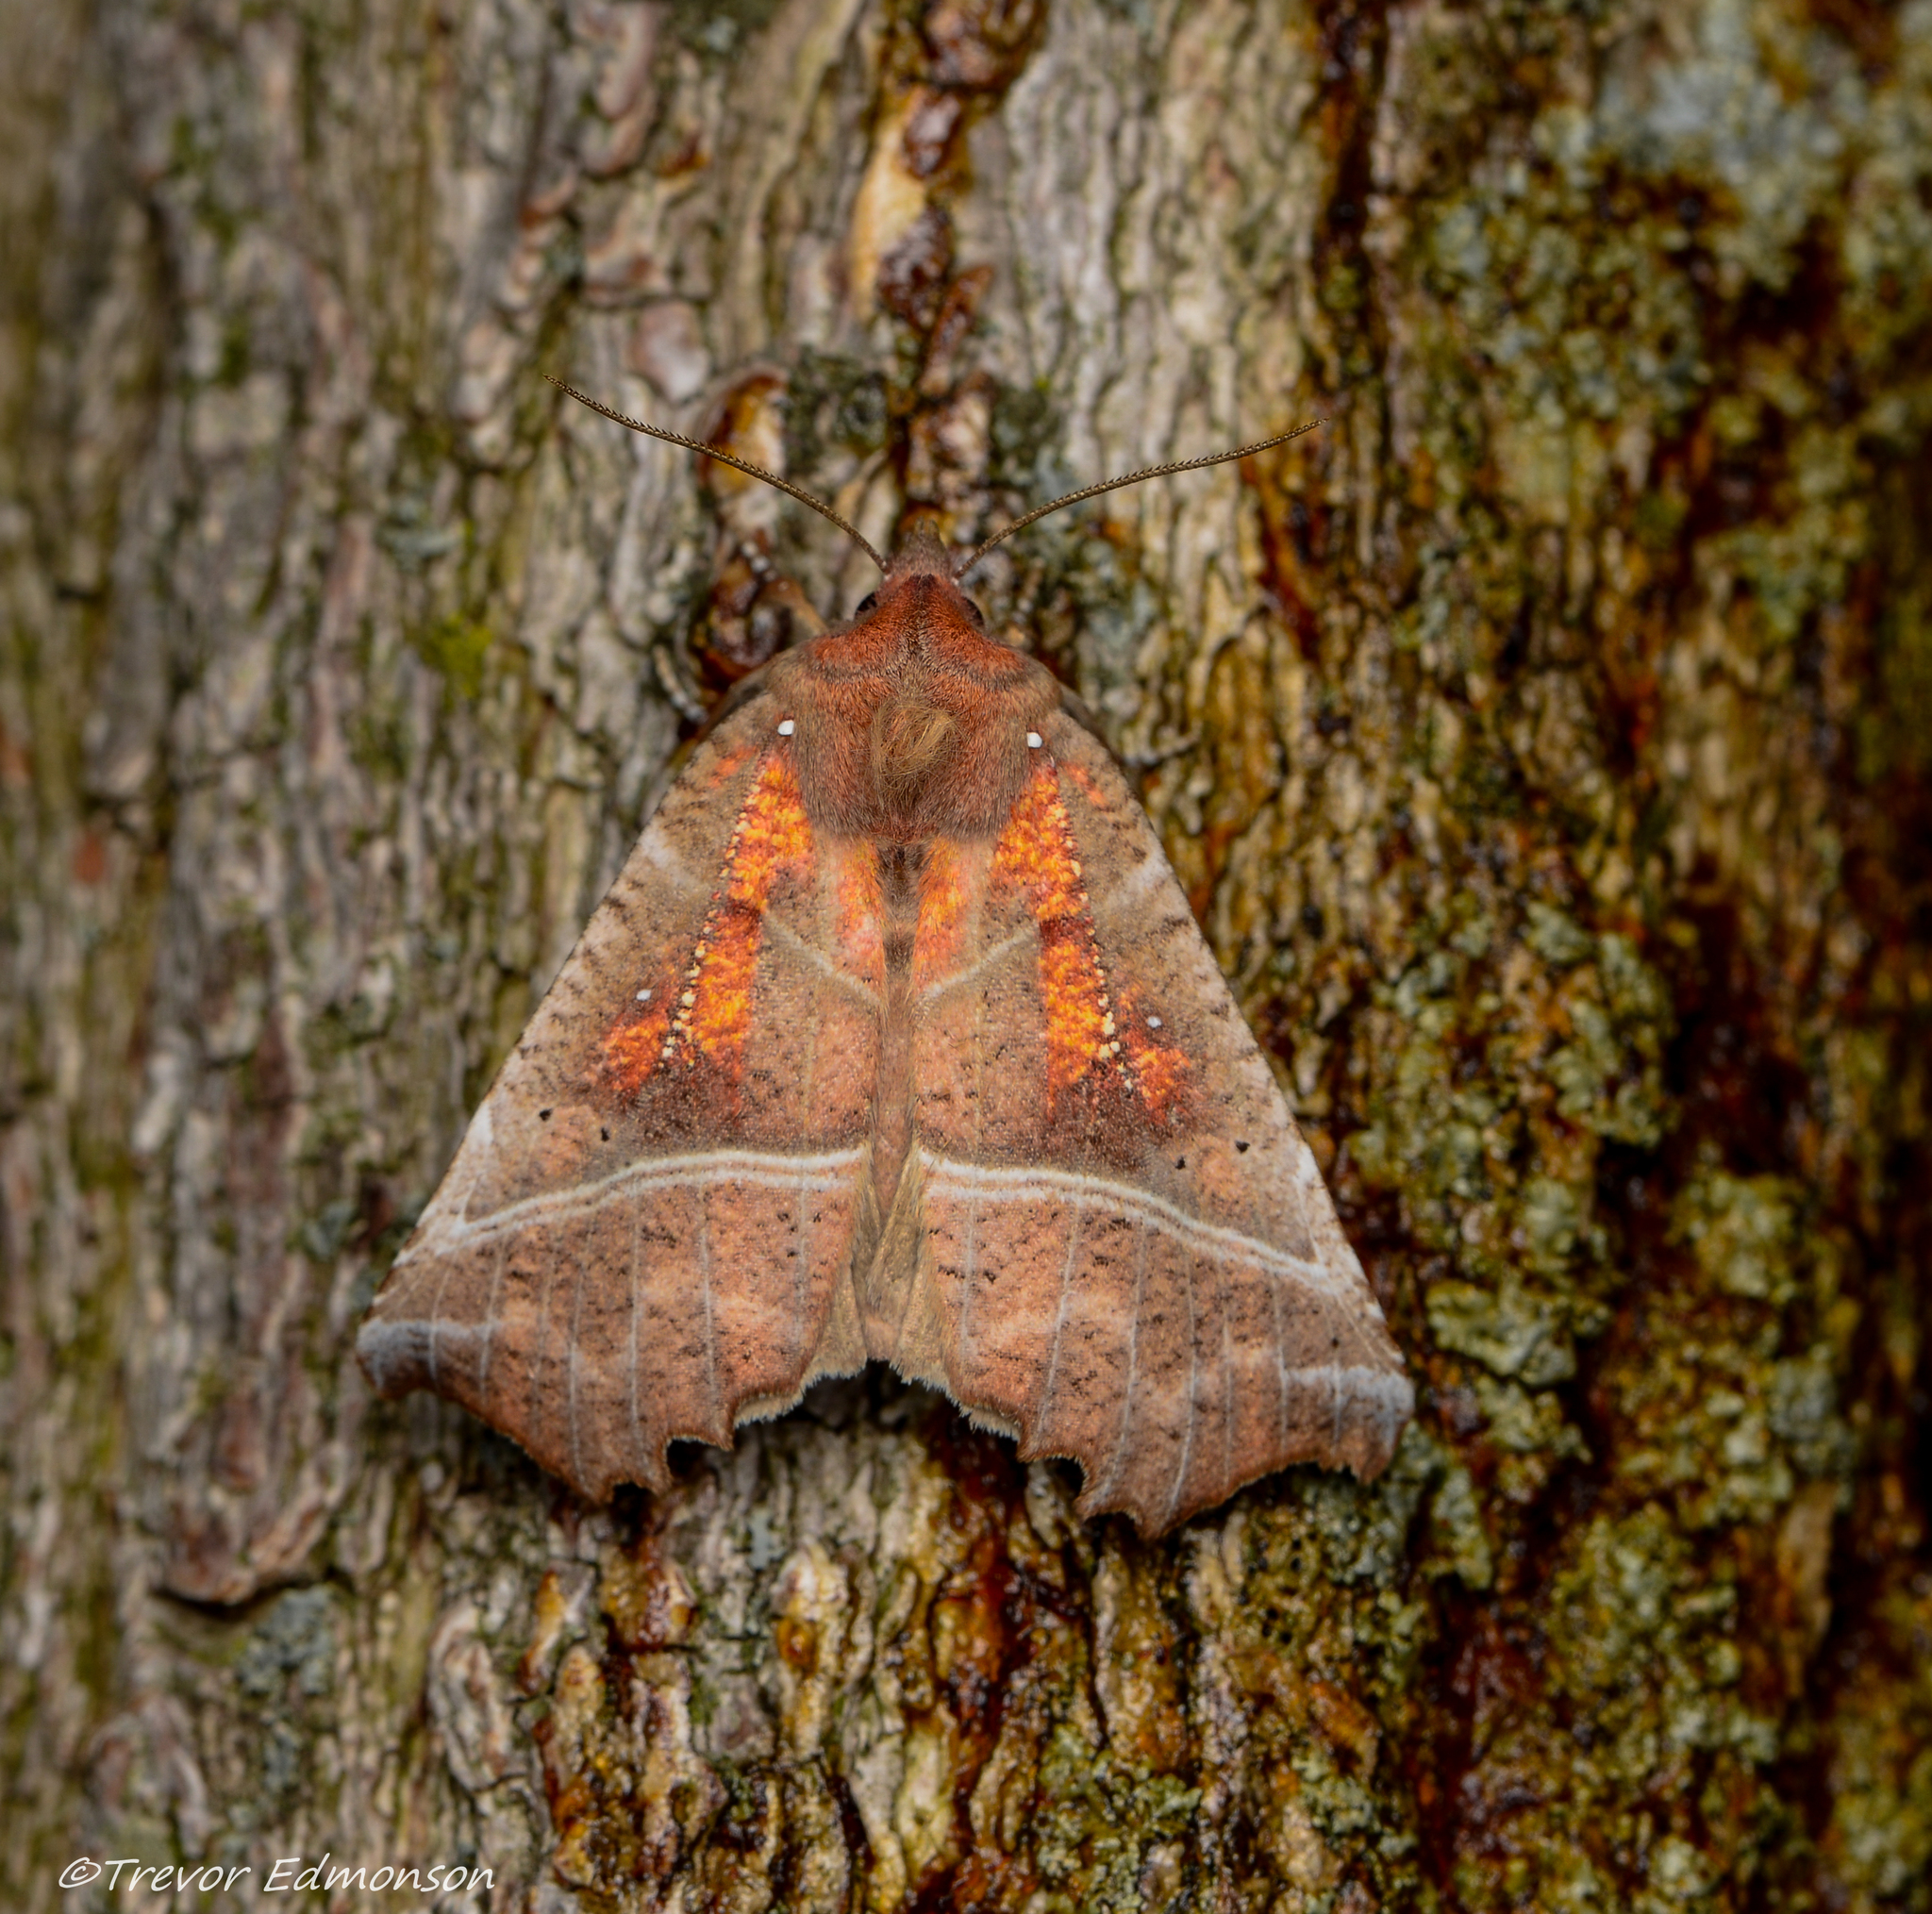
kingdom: Animalia
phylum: Arthropoda
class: Insecta
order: Lepidoptera
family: Erebidae
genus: Scoliopteryx
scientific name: Scoliopteryx libatrix
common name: Herald
